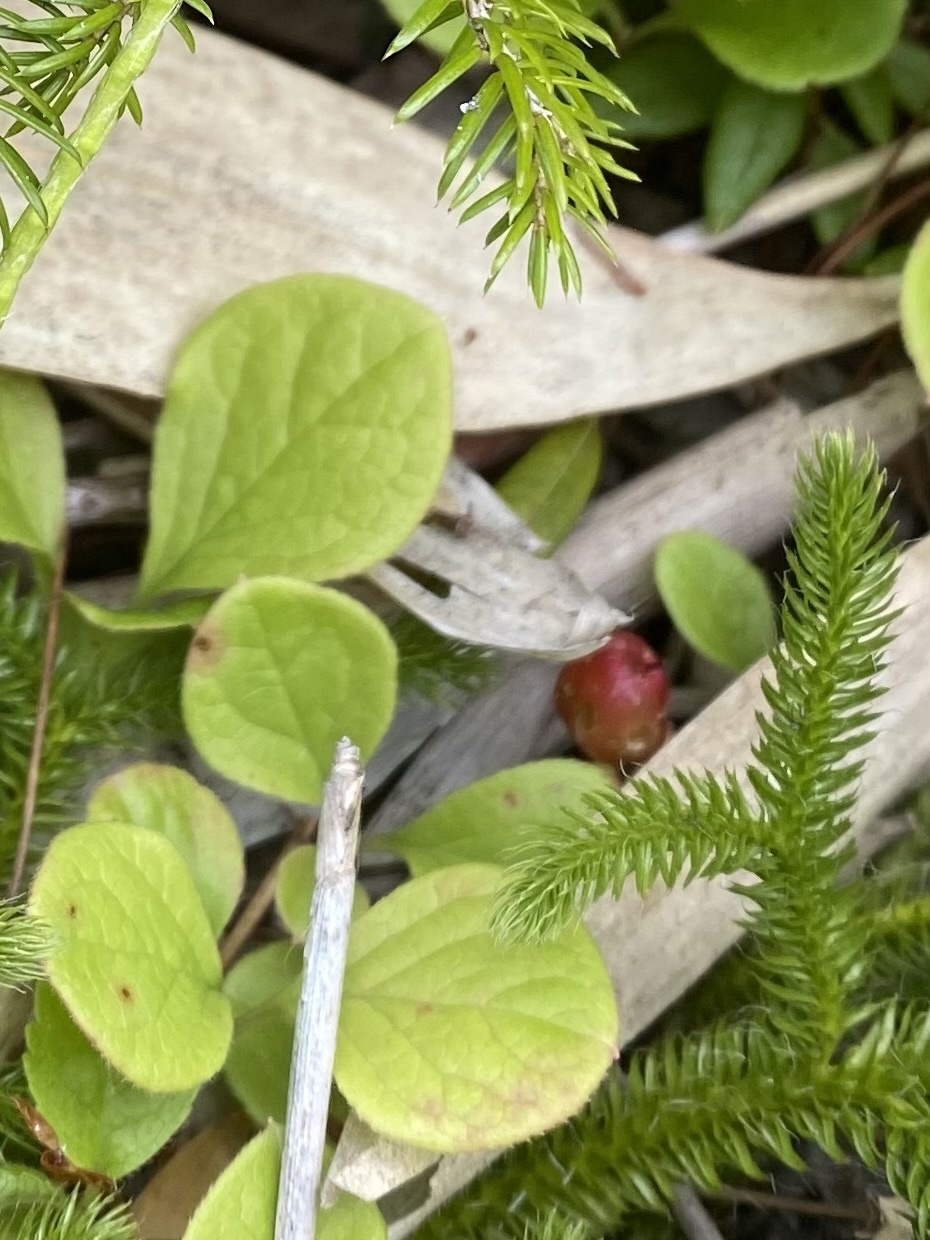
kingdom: Plantae
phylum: Tracheophyta
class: Magnoliopsida
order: Ericales
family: Ericaceae
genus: Vaccinium
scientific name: Vaccinium praestans
